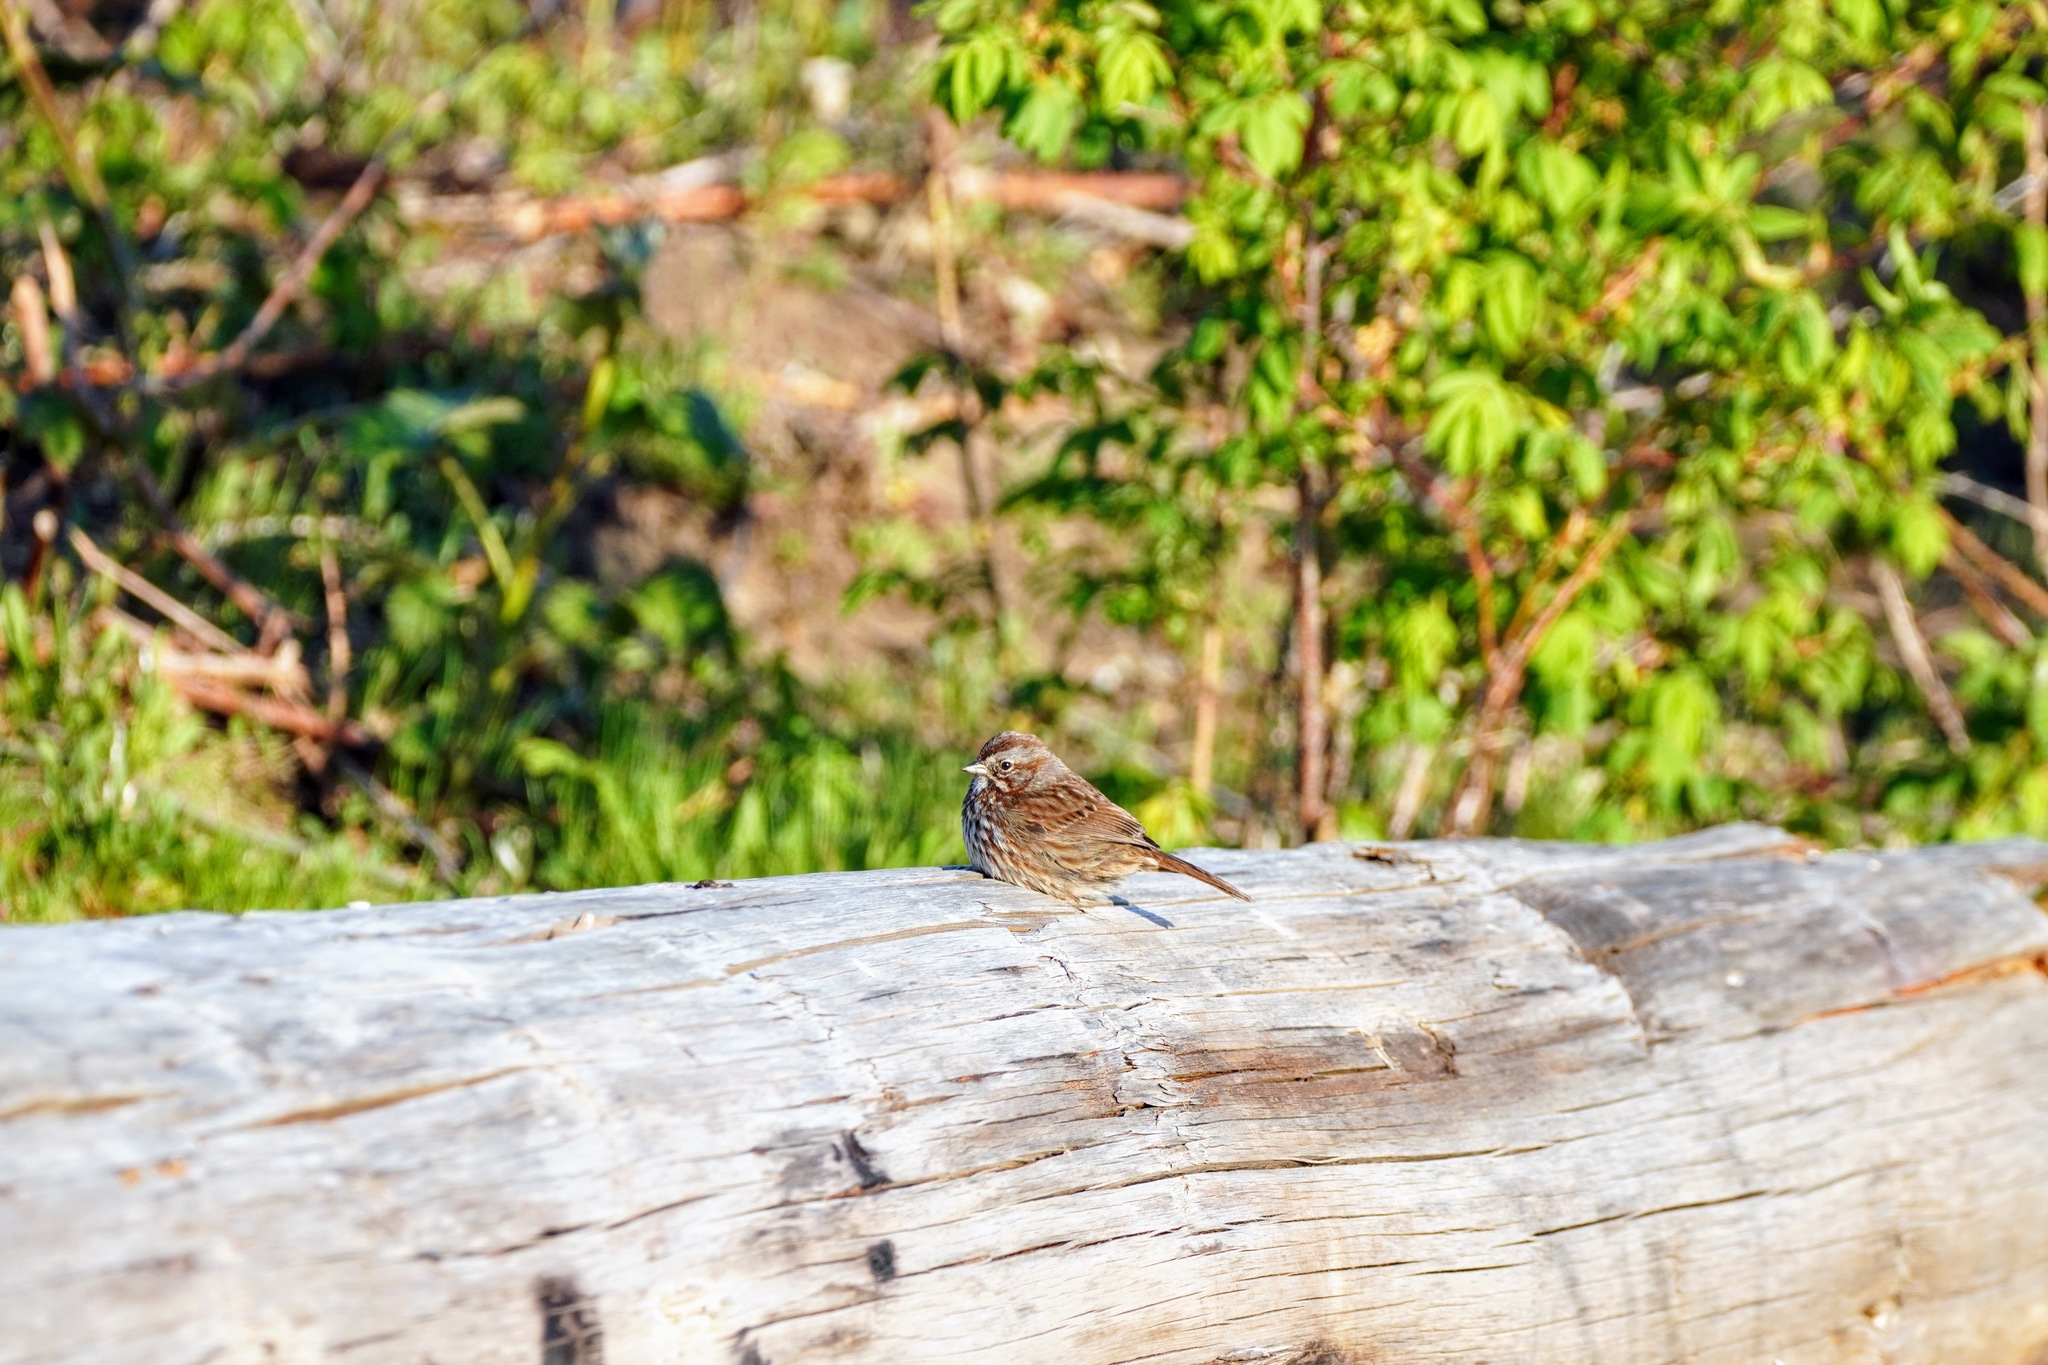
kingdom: Animalia
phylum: Chordata
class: Aves
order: Passeriformes
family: Passerellidae
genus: Melospiza
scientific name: Melospiza melodia
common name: Song sparrow
